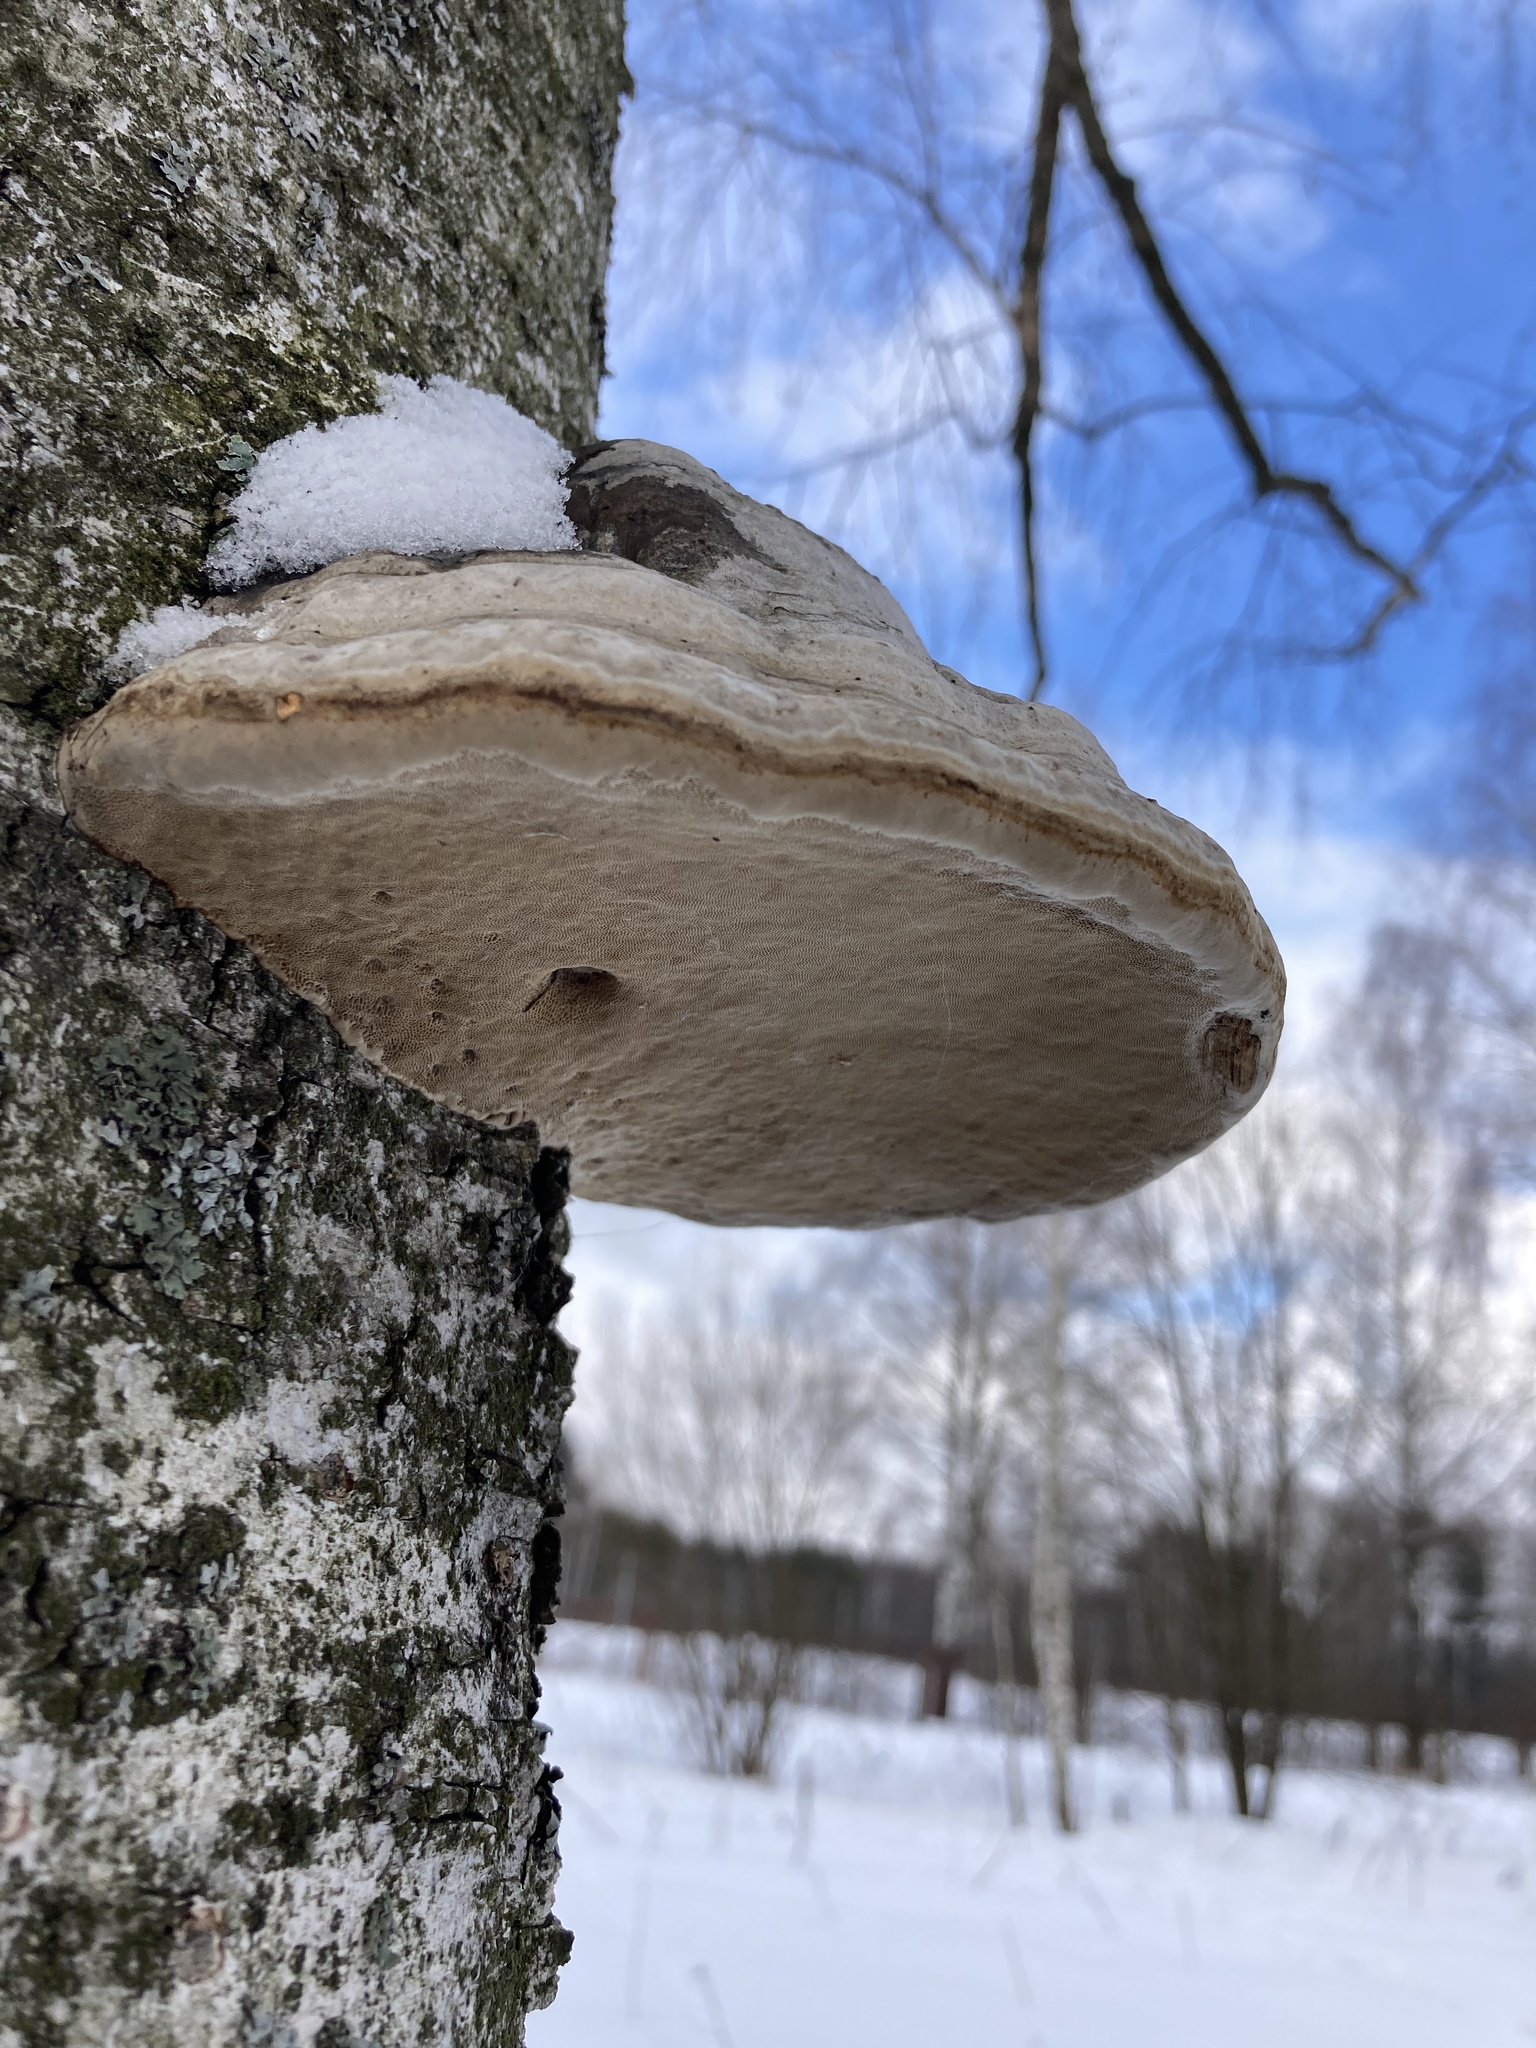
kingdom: Fungi
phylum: Basidiomycota
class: Agaricomycetes
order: Polyporales
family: Polyporaceae
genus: Fomes
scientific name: Fomes fomentarius
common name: Hoof fungus
